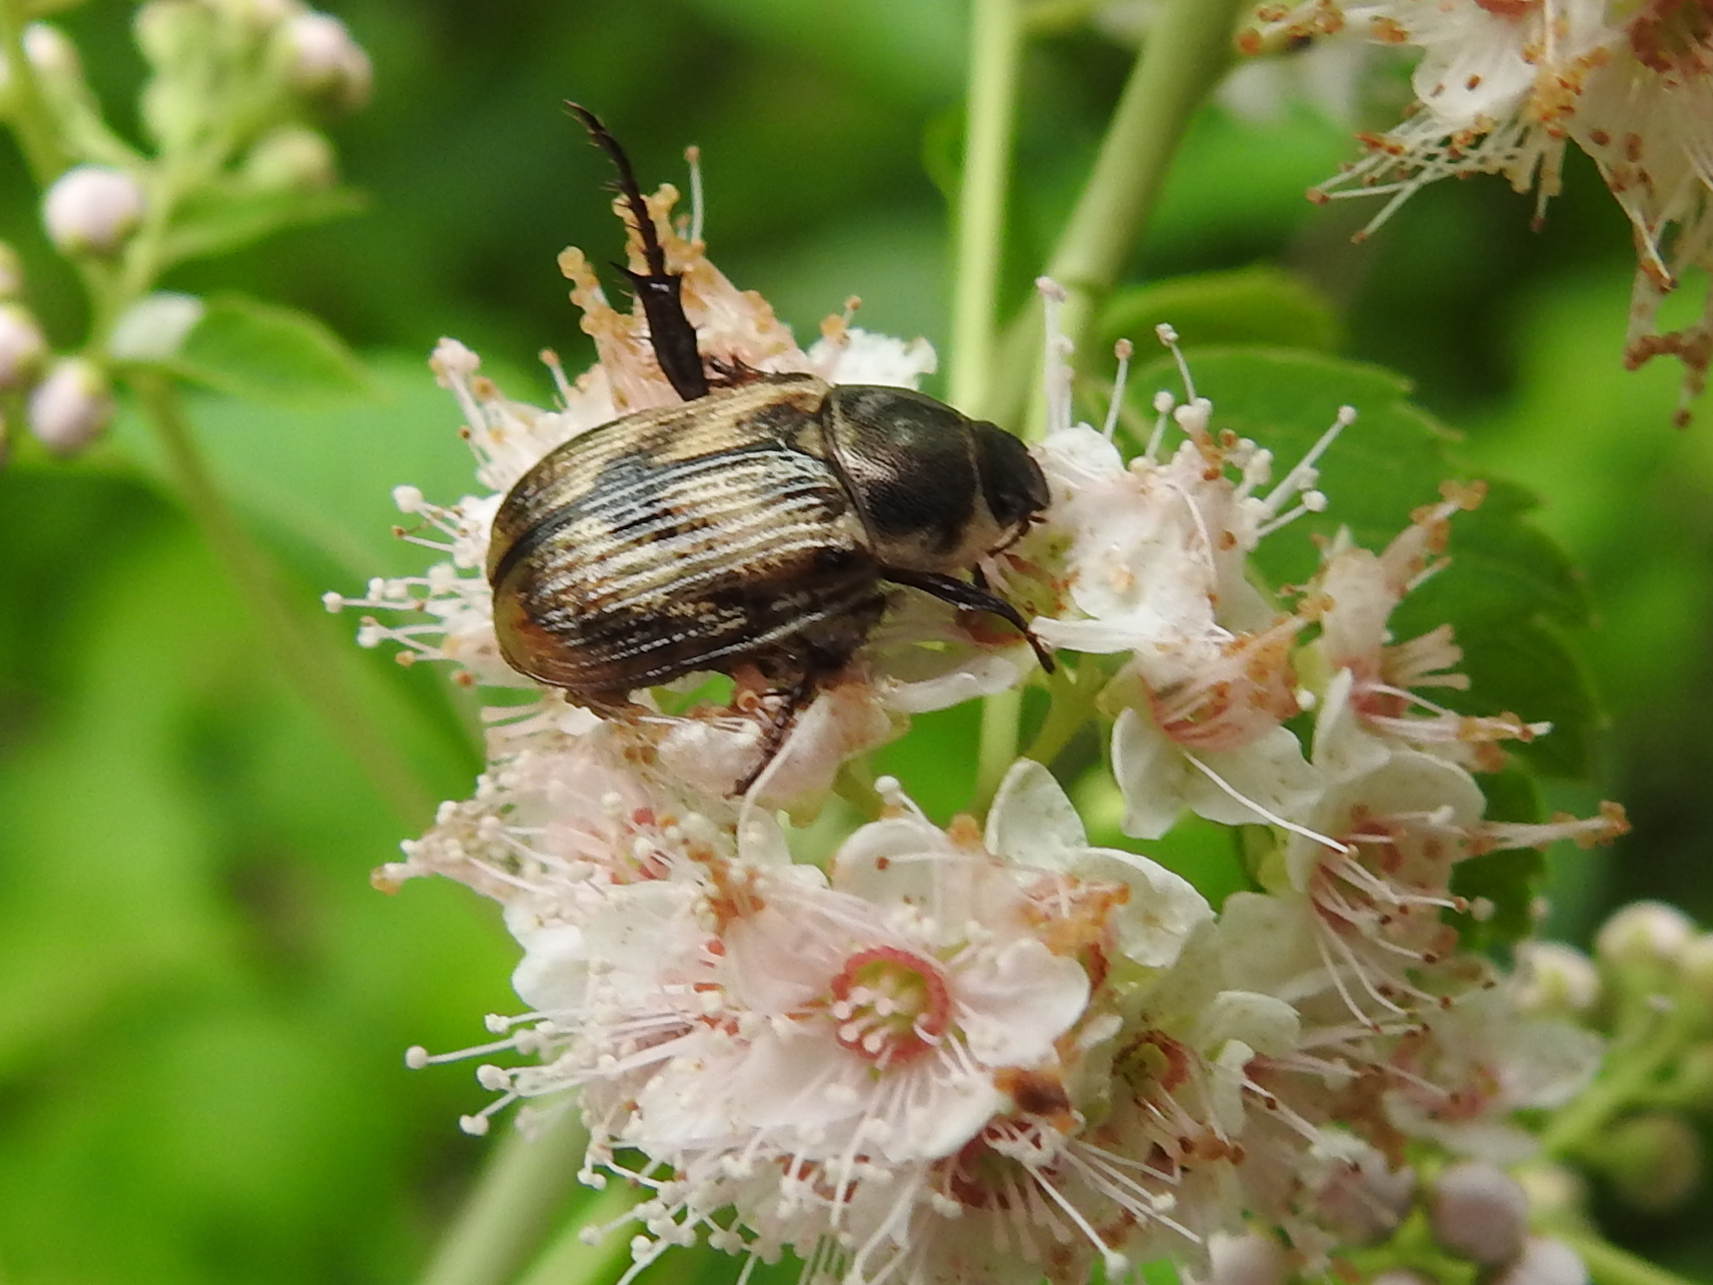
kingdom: Animalia
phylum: Arthropoda
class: Insecta
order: Coleoptera
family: Scarabaeidae
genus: Exomala
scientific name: Exomala orientalis
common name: Oriental beetle
